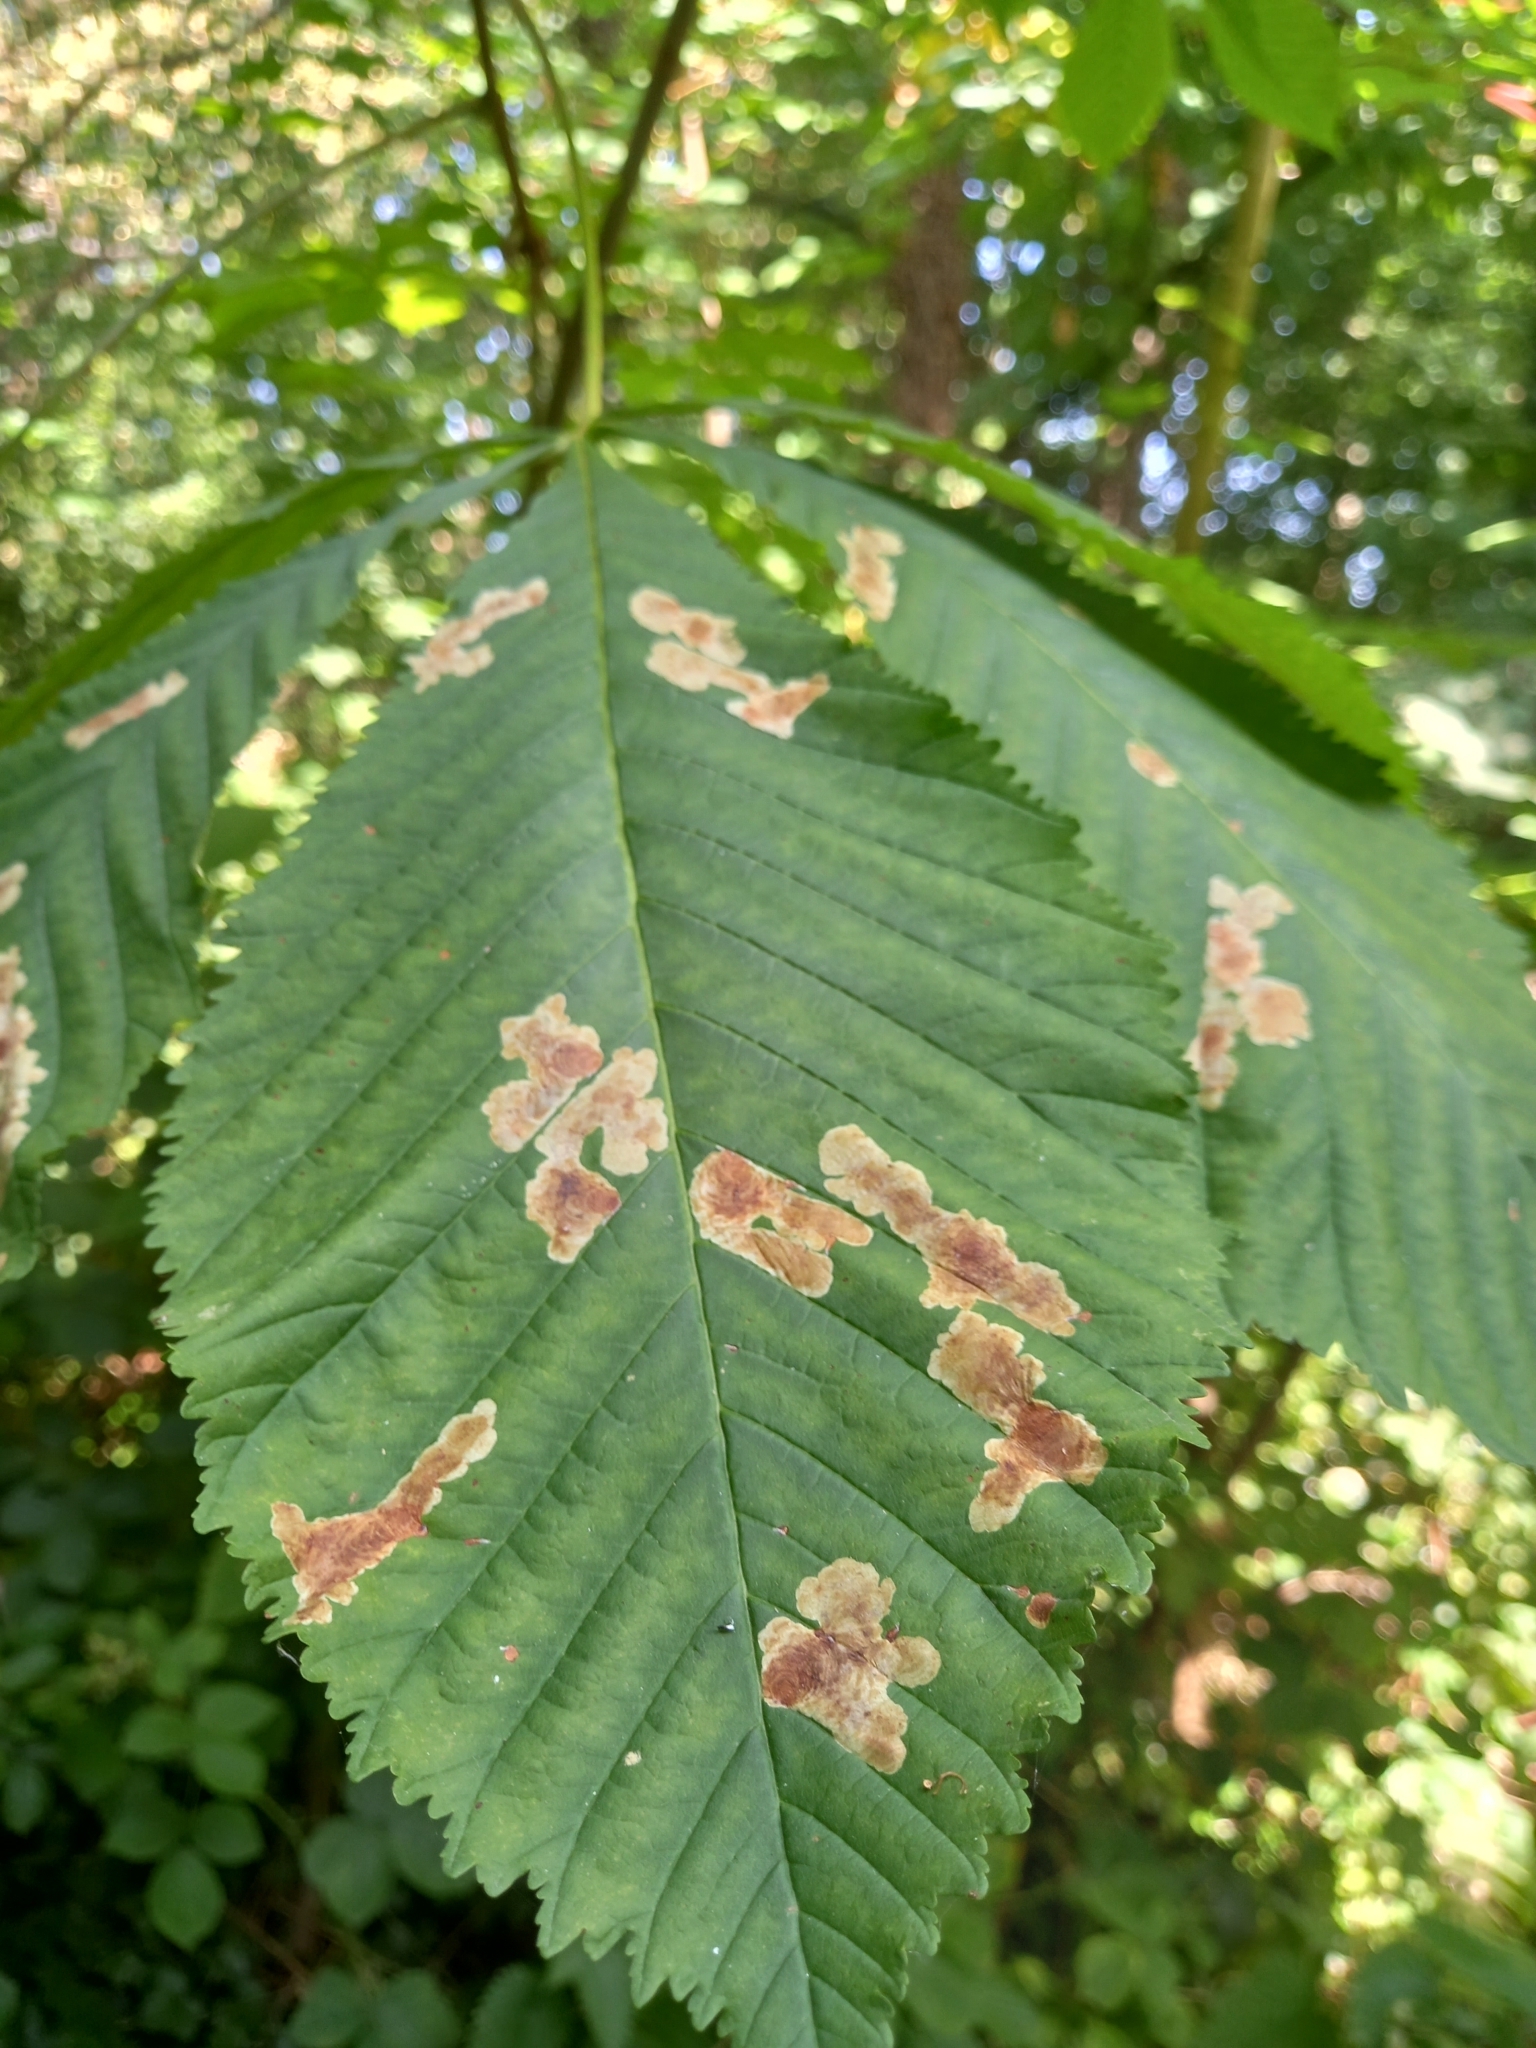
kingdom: Animalia
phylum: Arthropoda
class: Insecta
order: Lepidoptera
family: Gracillariidae
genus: Cameraria
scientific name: Cameraria ohridella
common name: Horse-chestnut leaf-miner
